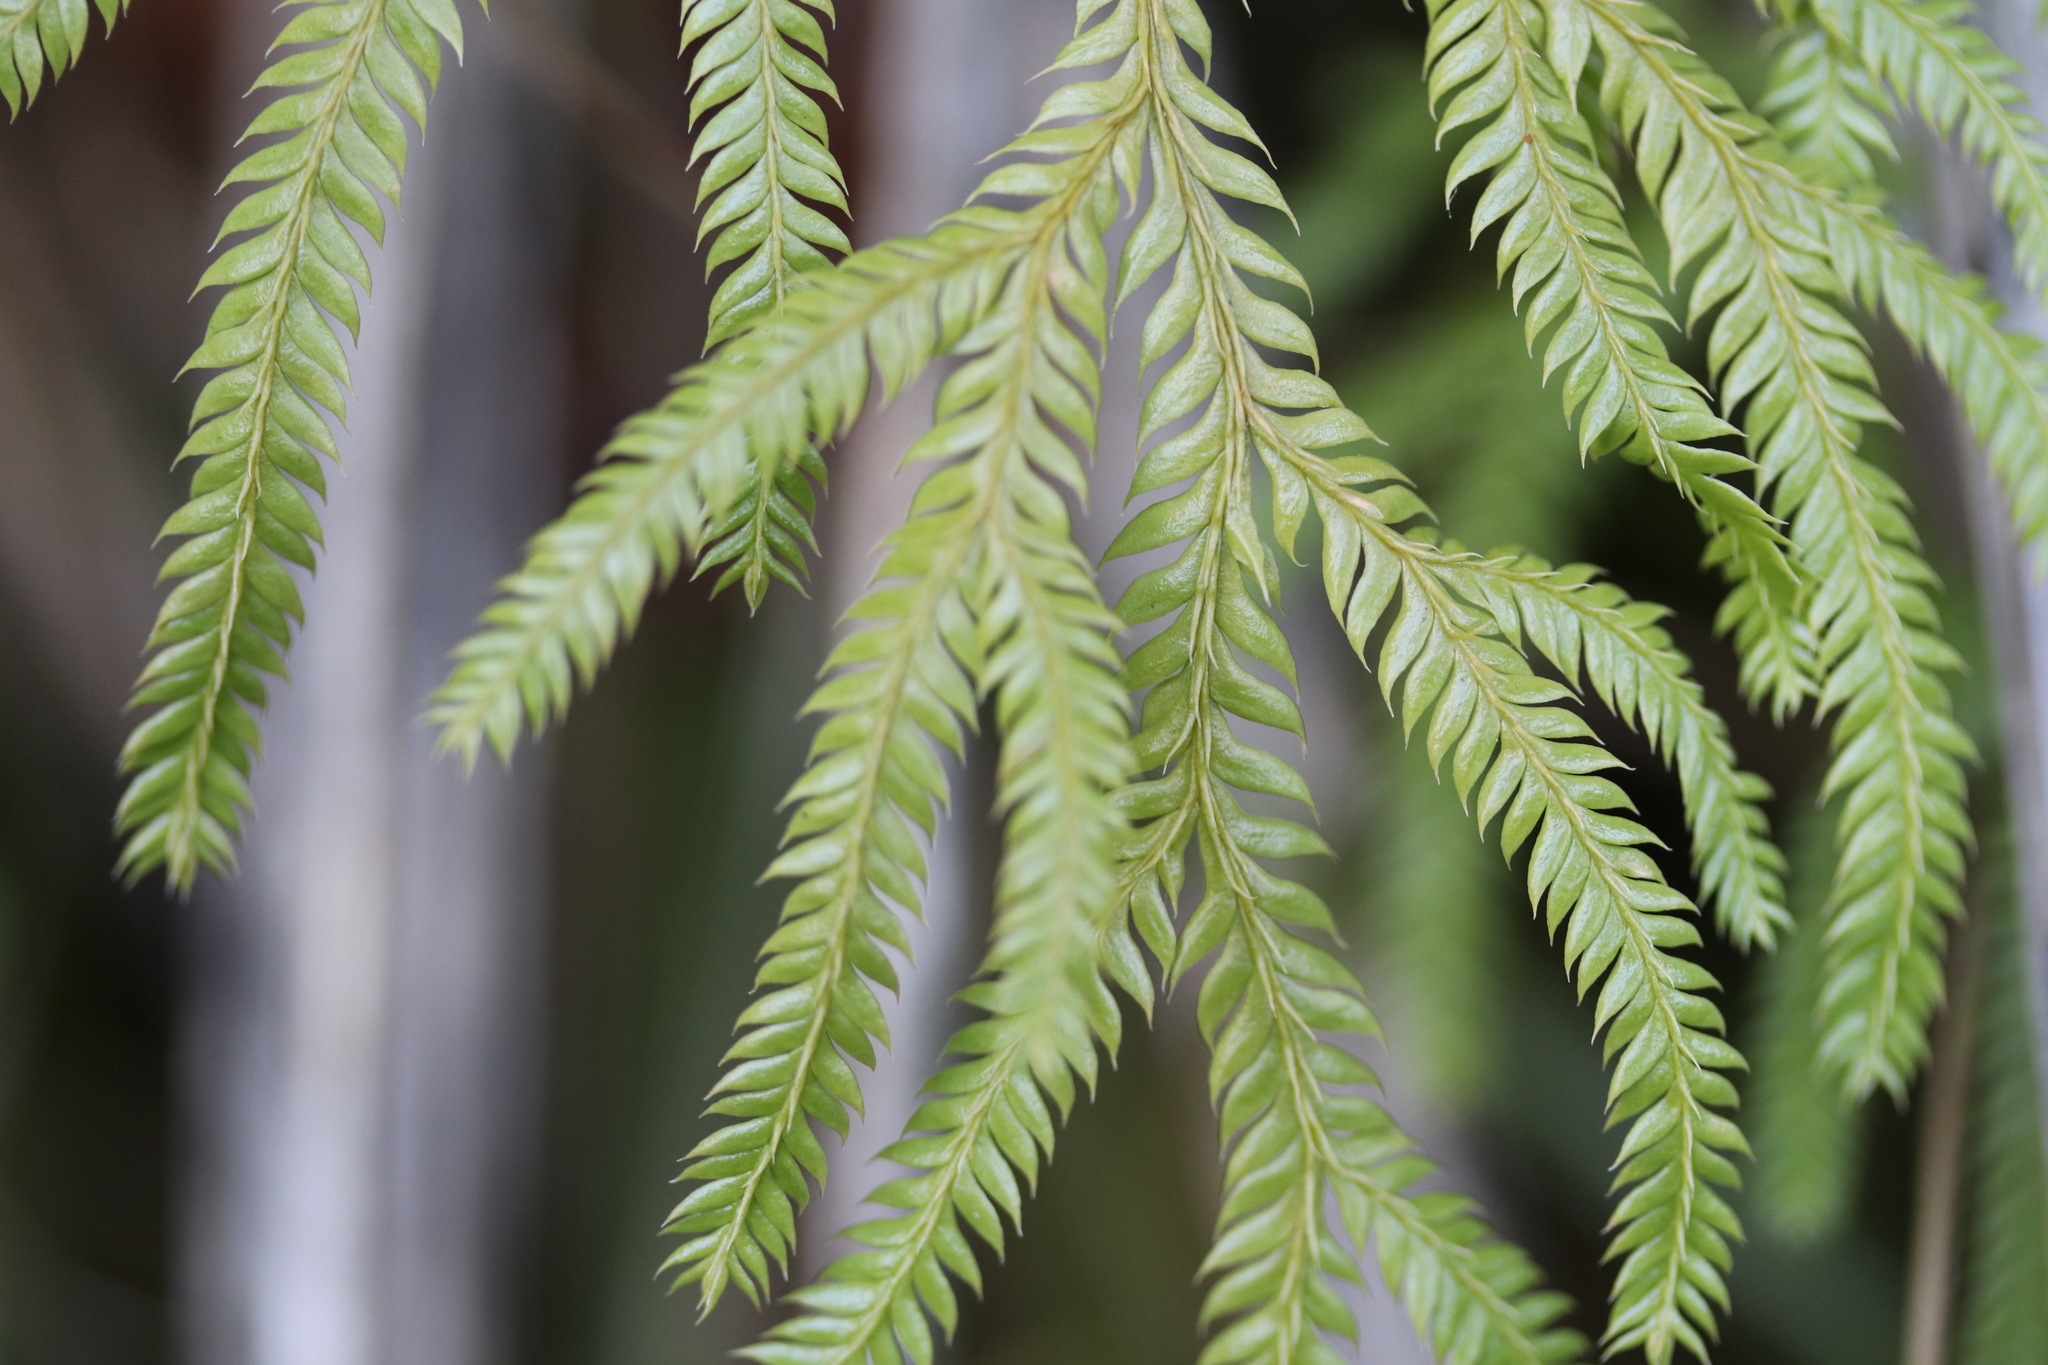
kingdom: Plantae
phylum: Tracheophyta
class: Lycopodiopsida
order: Lycopodiales
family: Lycopodiaceae
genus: Lycopodium
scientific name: Lycopodium volubile
